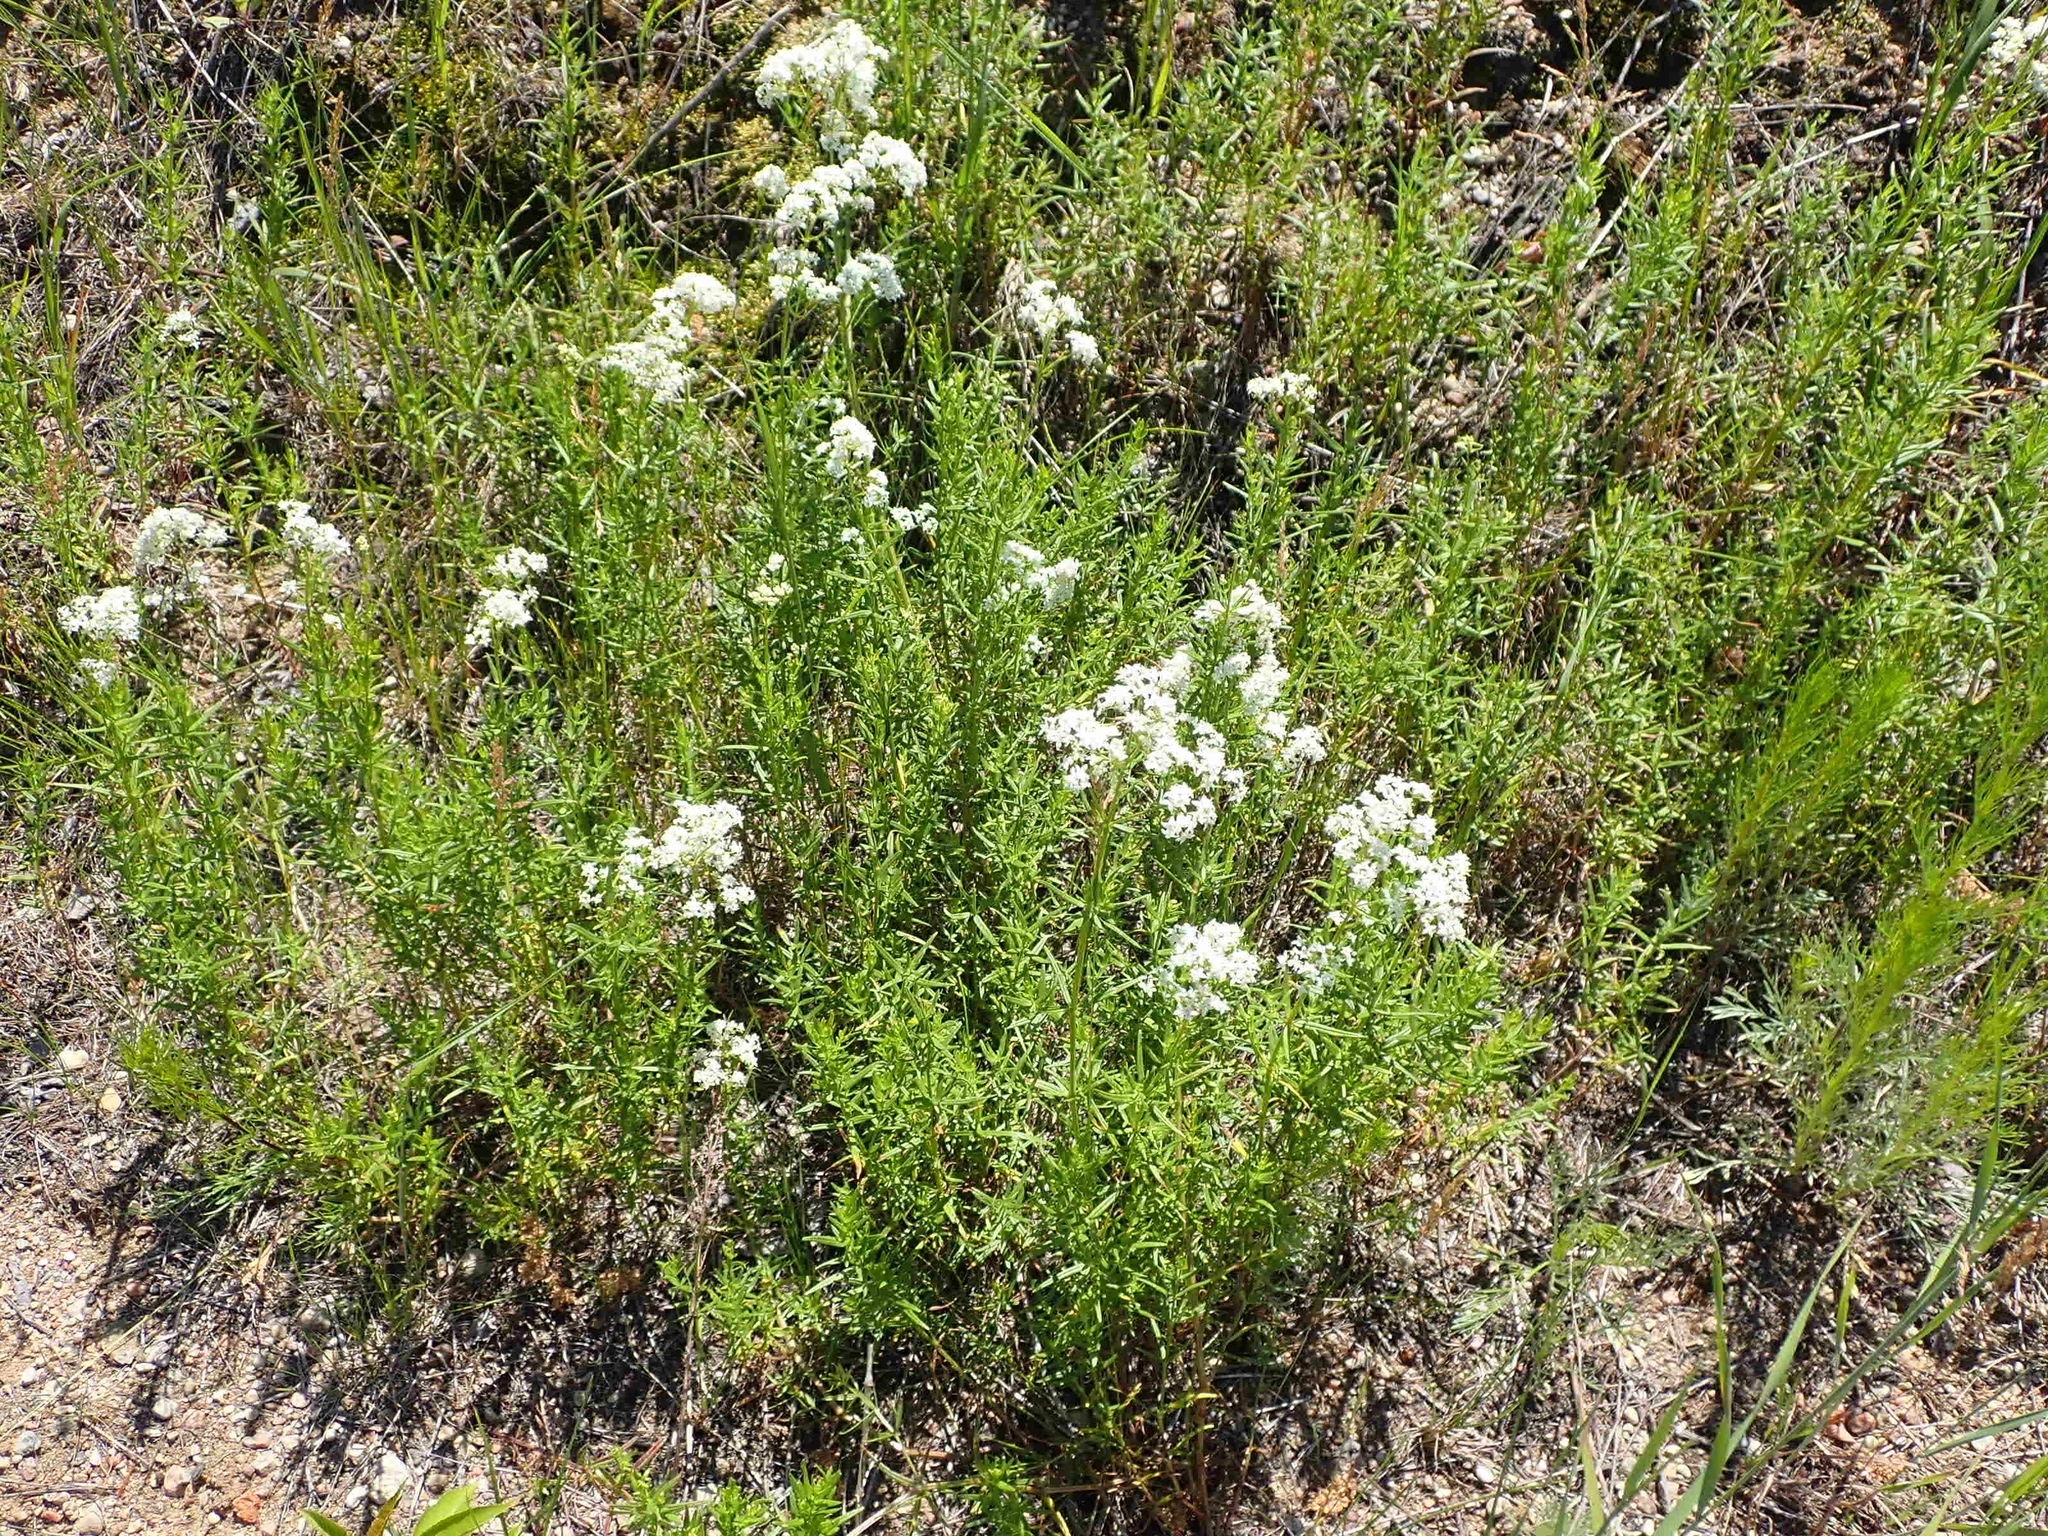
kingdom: Plantae
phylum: Tracheophyta
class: Magnoliopsida
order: Gentianales
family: Rubiaceae
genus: Galium
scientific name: Galium boreale
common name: Northern bedstraw
